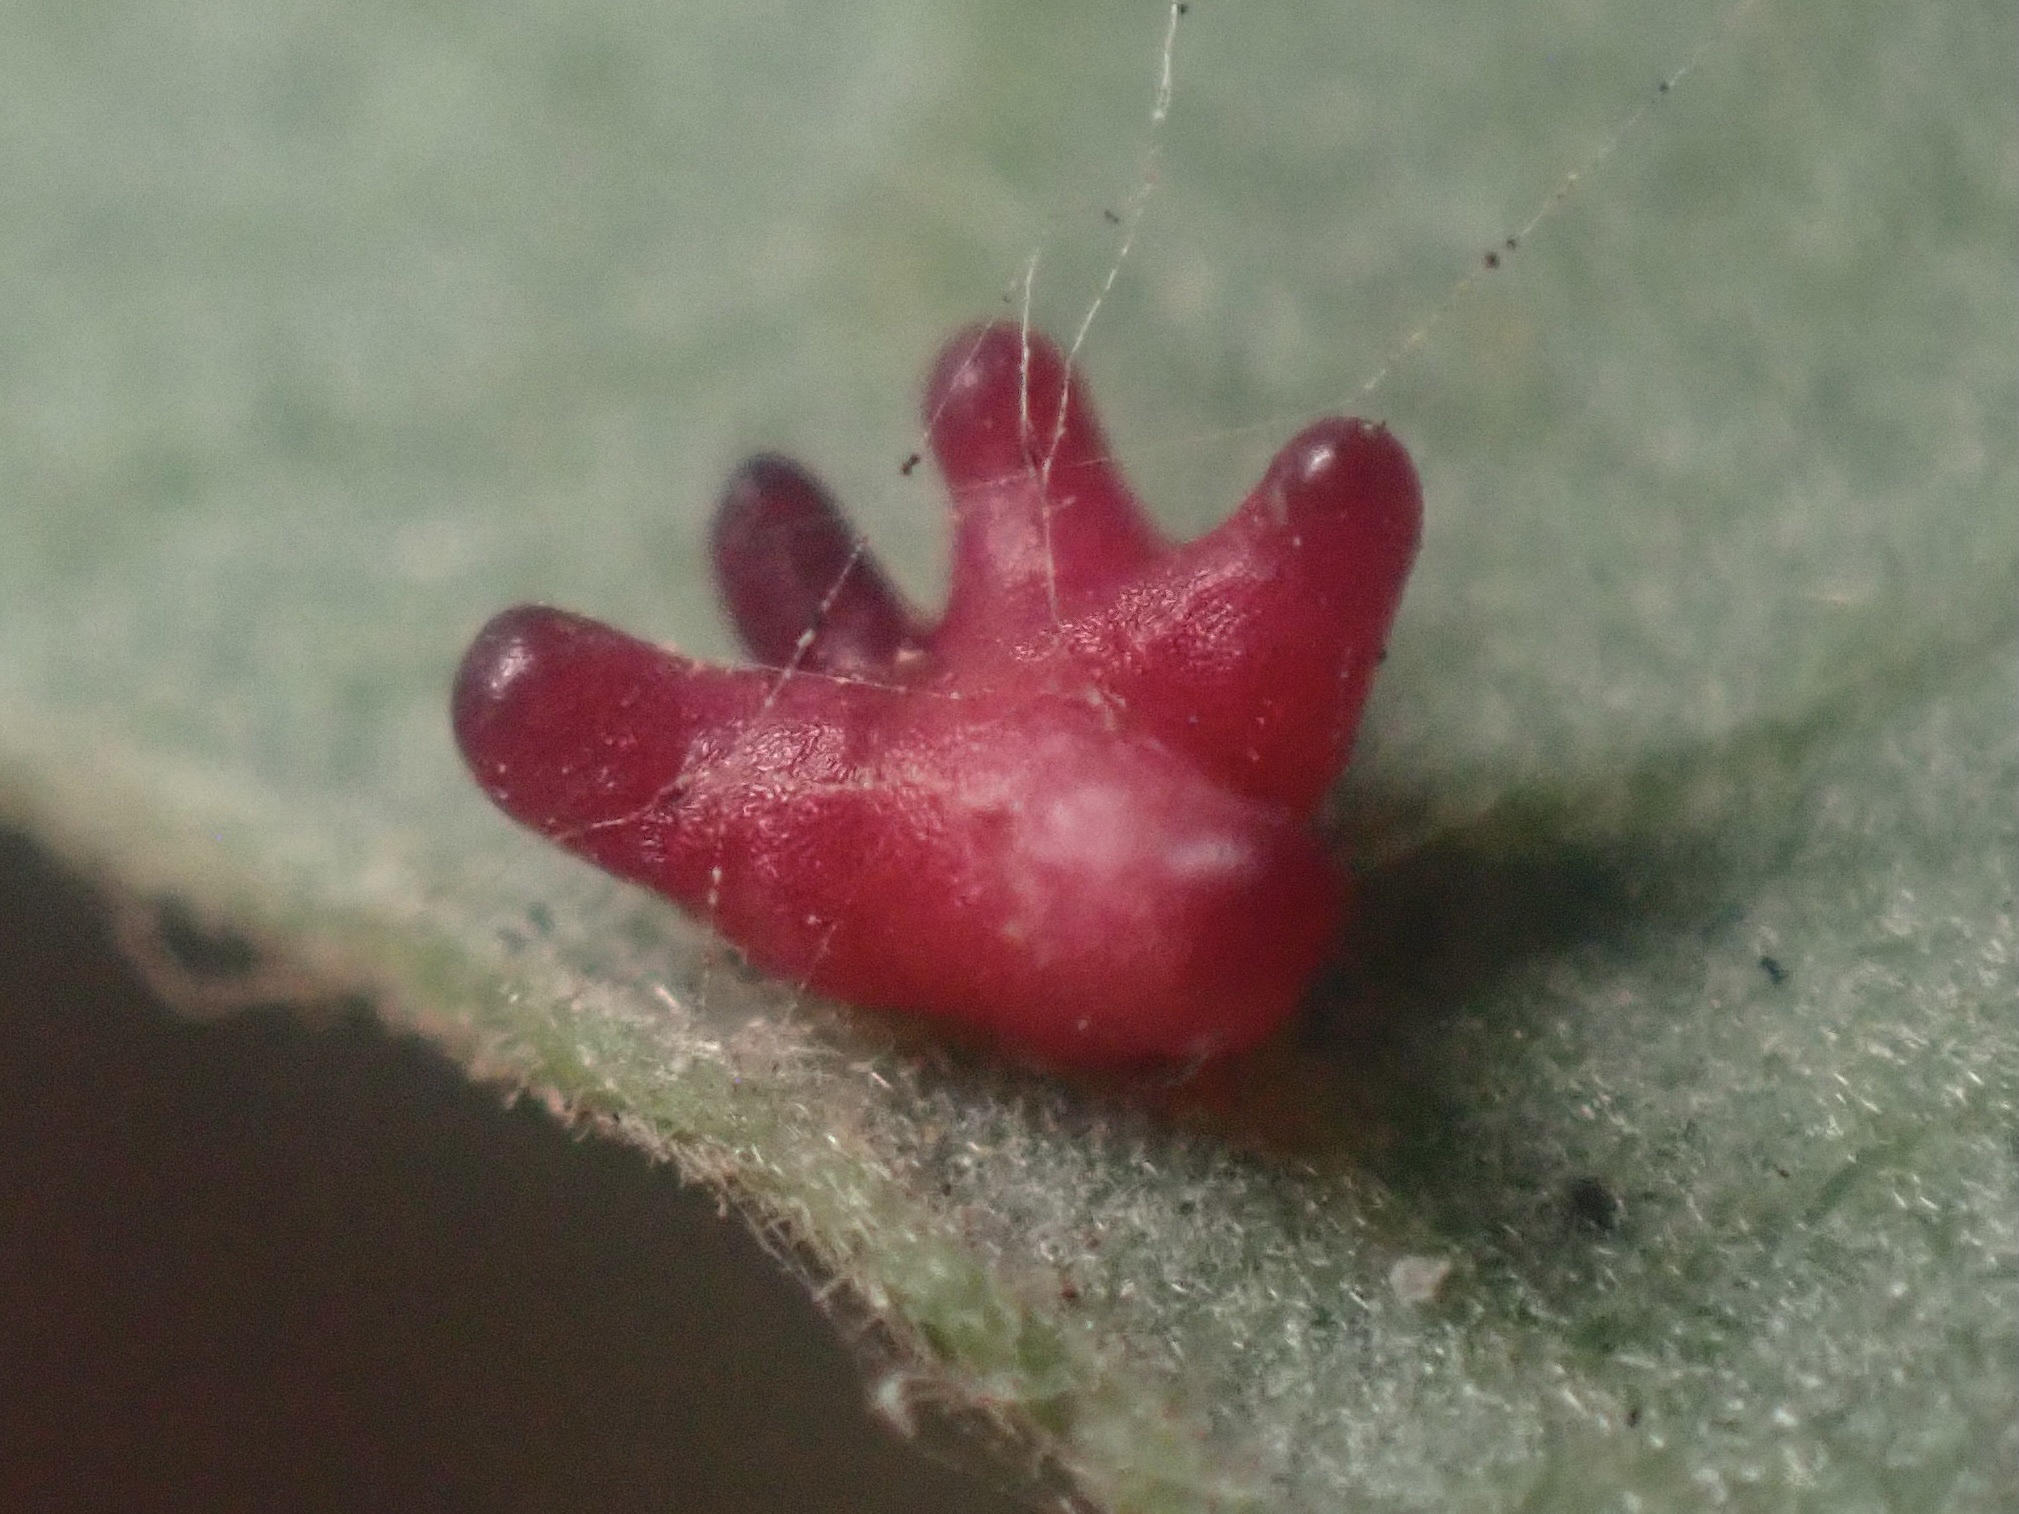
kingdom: Animalia
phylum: Arthropoda
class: Insecta
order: Hymenoptera
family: Cynipidae
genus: Cynips
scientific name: Cynips douglasi
